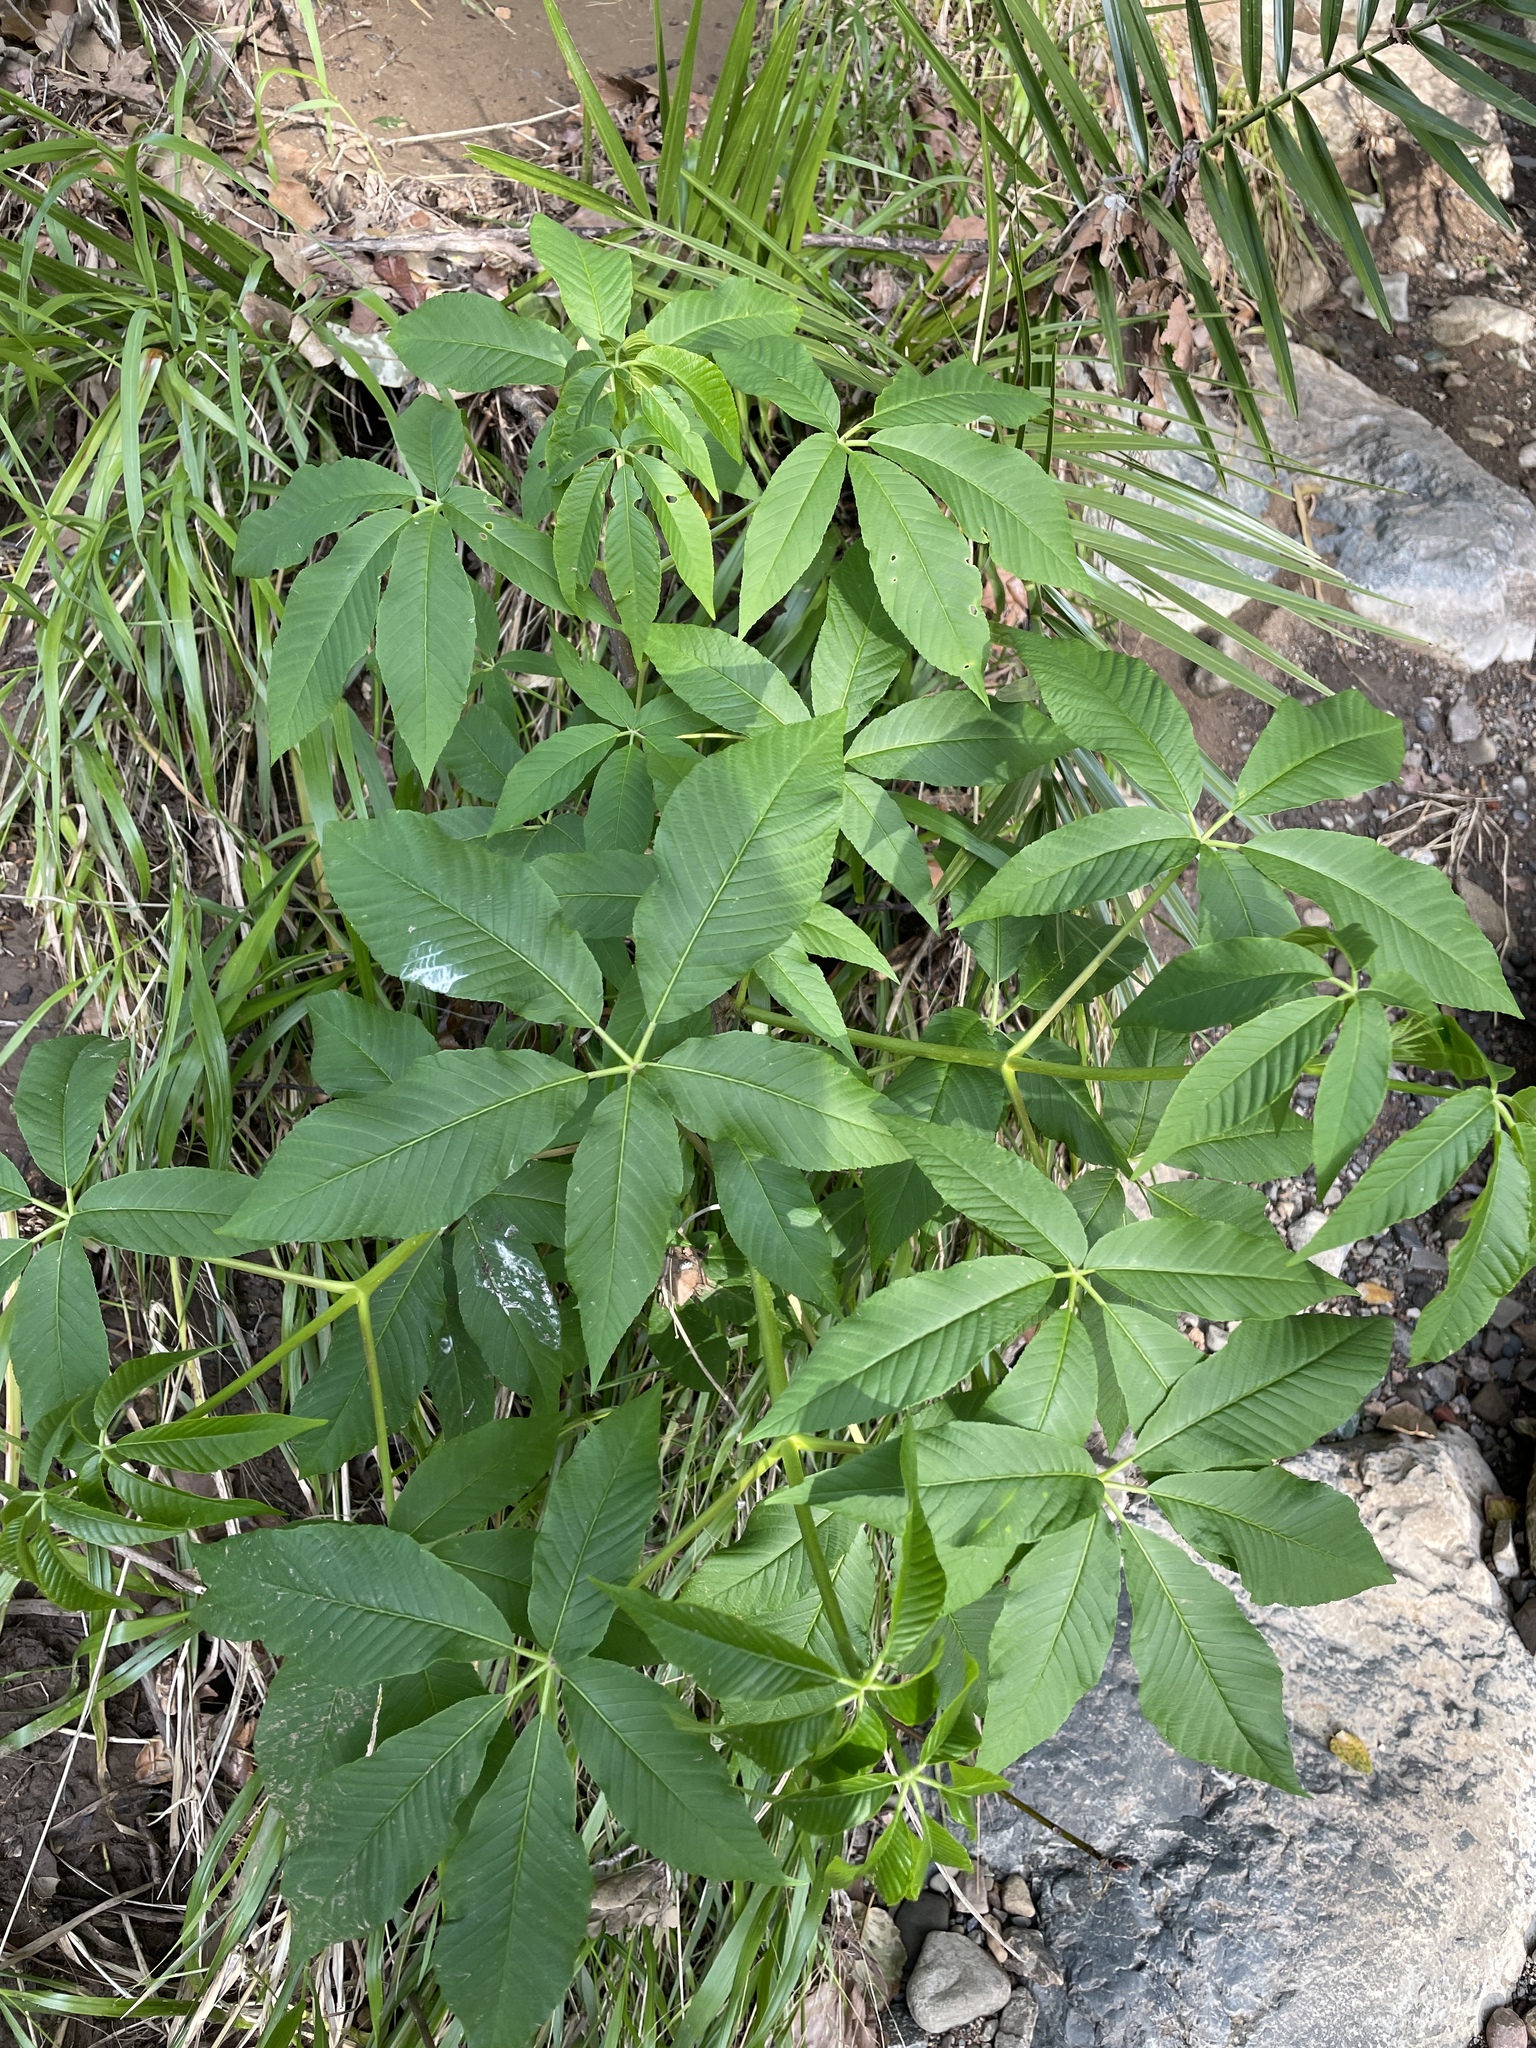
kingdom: Plantae
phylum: Tracheophyta
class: Magnoliopsida
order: Sapindales
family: Sapindaceae
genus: Aesculus
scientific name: Aesculus californica
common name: California buckeye
